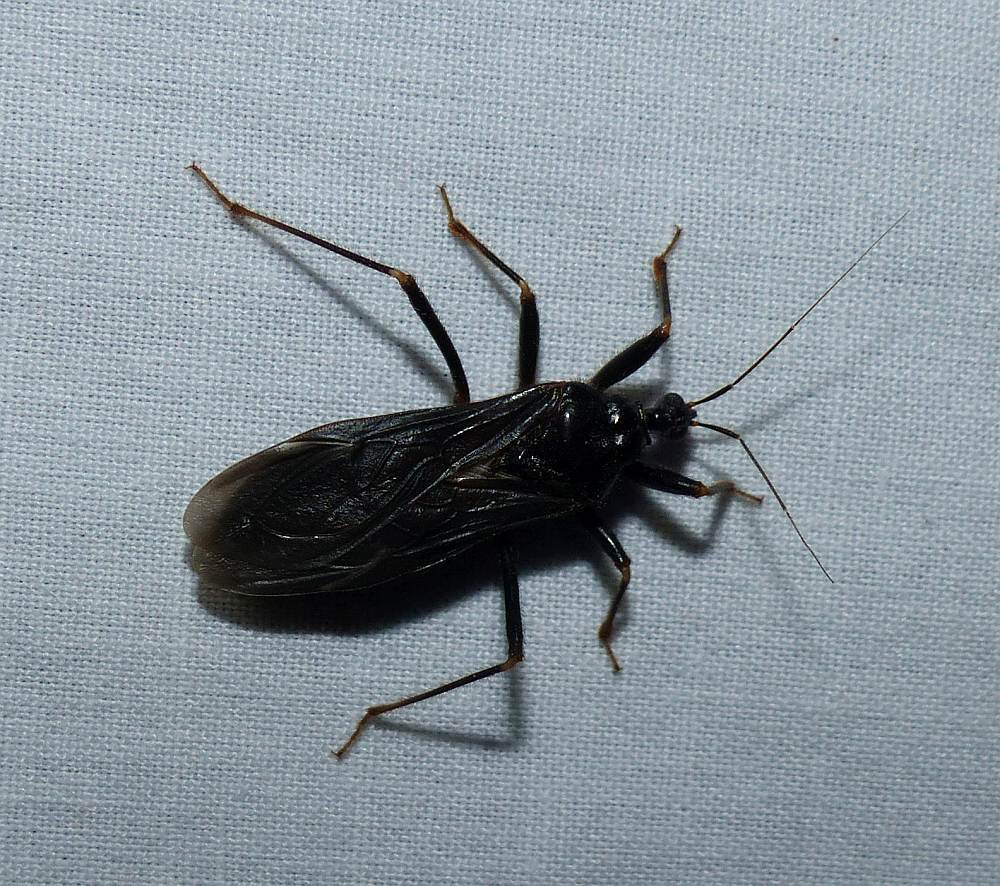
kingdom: Animalia
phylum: Arthropoda
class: Insecta
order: Hemiptera
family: Reduviidae
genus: Reduvius
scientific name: Reduvius personatus
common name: Masked hunter
